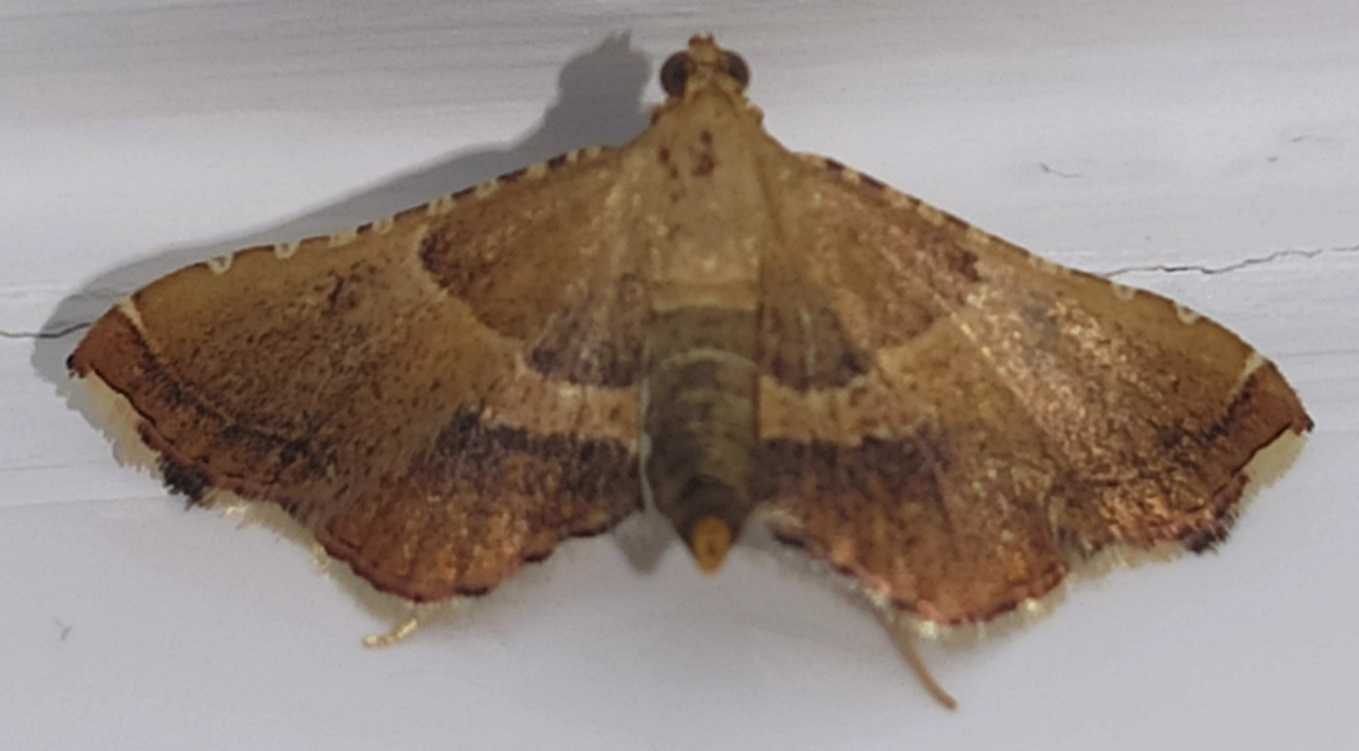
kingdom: Animalia
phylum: Arthropoda
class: Insecta
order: Lepidoptera
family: Pyralidae
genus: Endotricha
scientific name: Endotricha flammealis
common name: Rosy tabby
